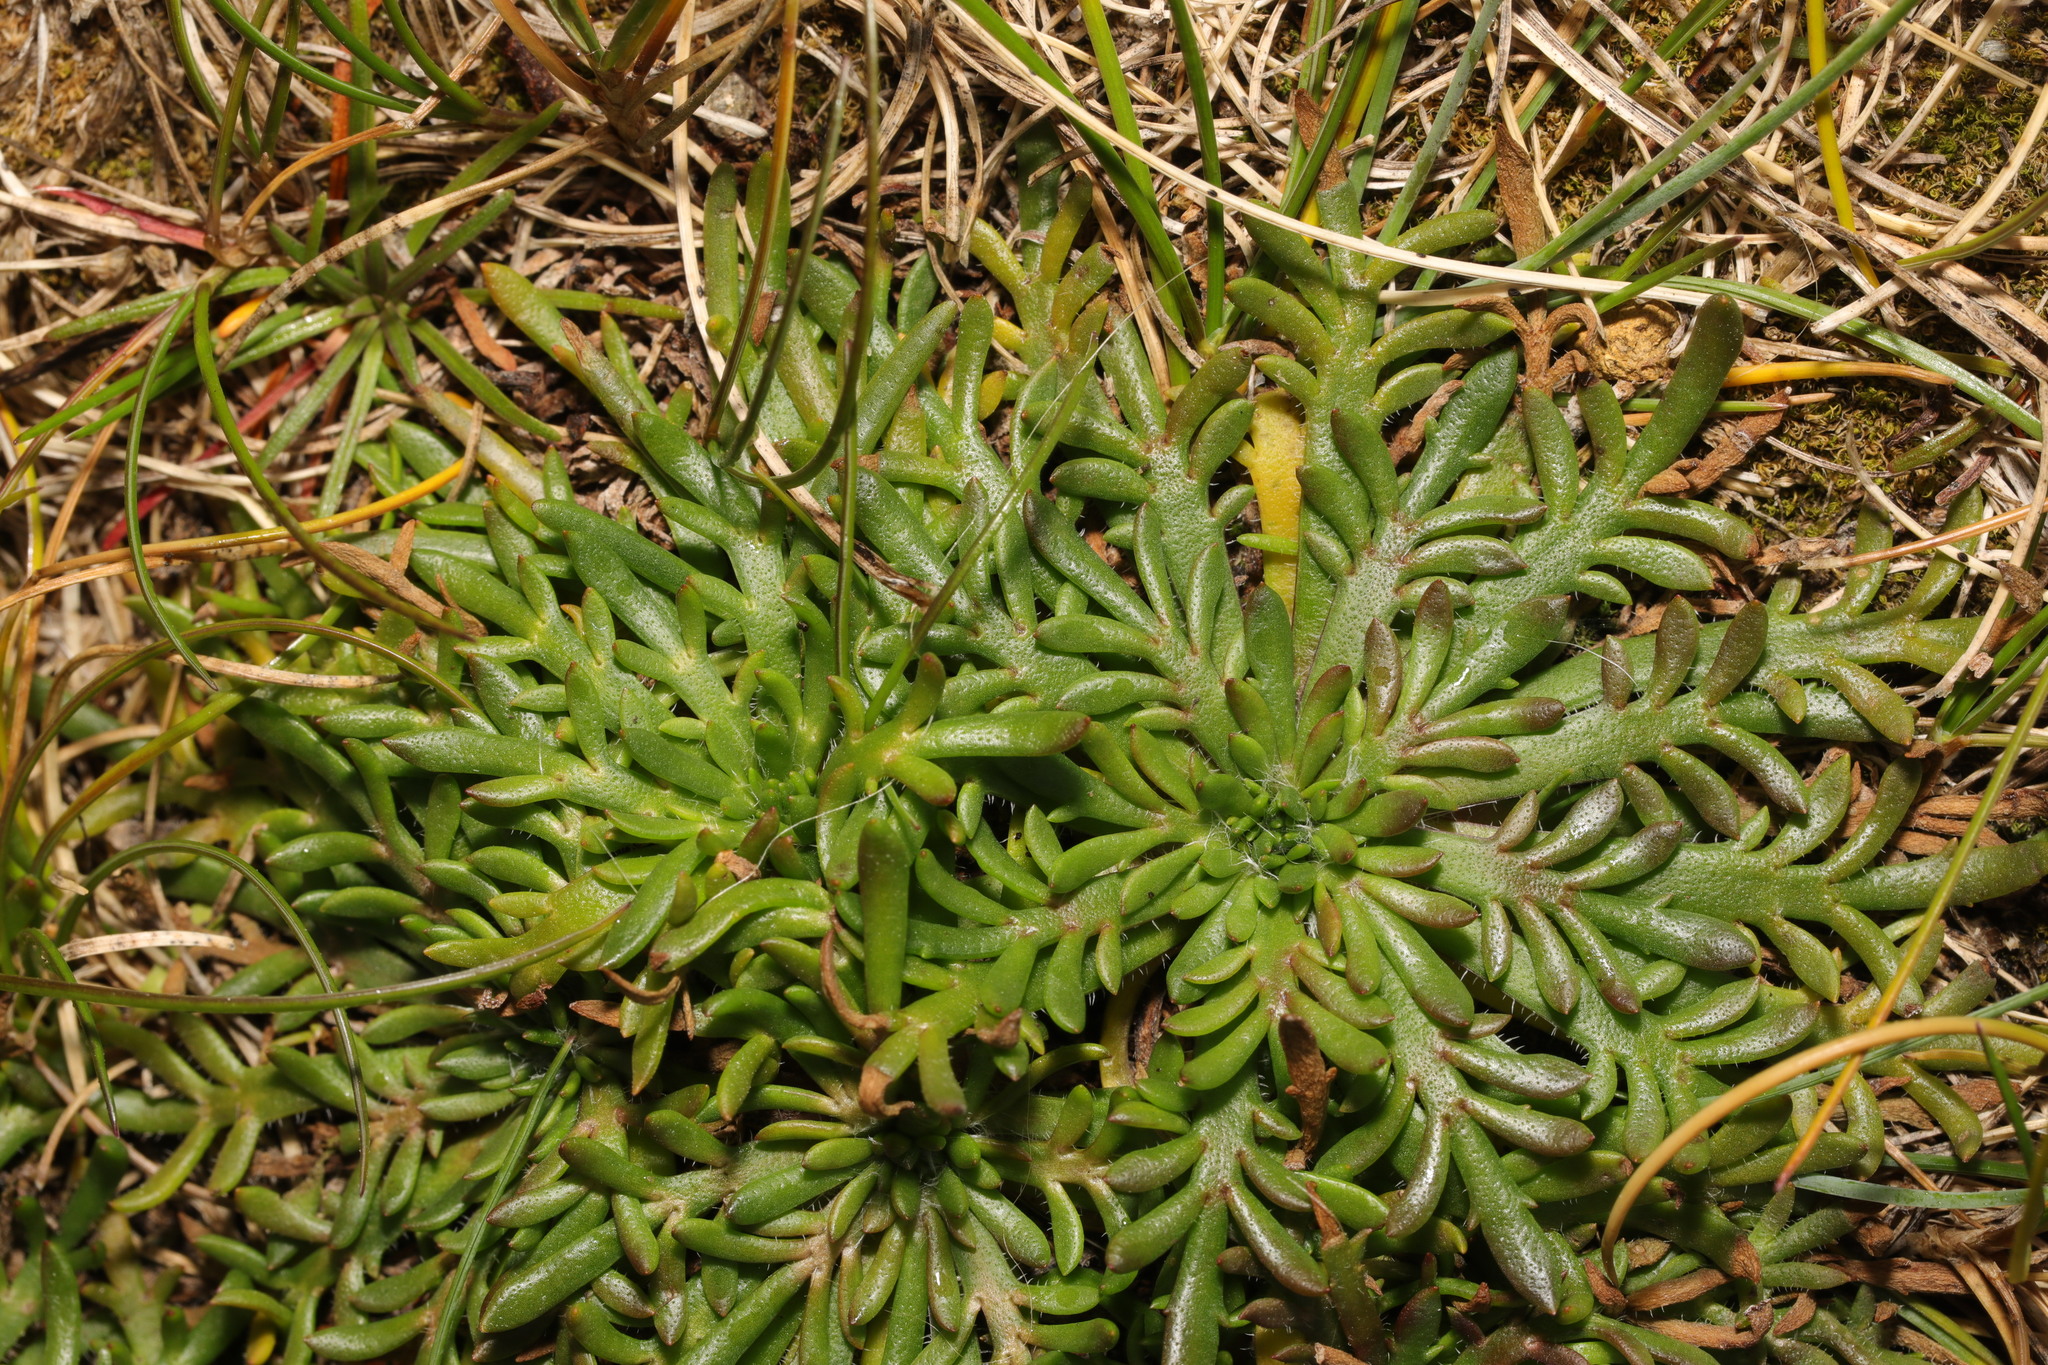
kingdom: Plantae
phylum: Tracheophyta
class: Magnoliopsida
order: Lamiales
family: Plantaginaceae
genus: Plantago
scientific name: Plantago coronopus
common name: Buck's-horn plantain
